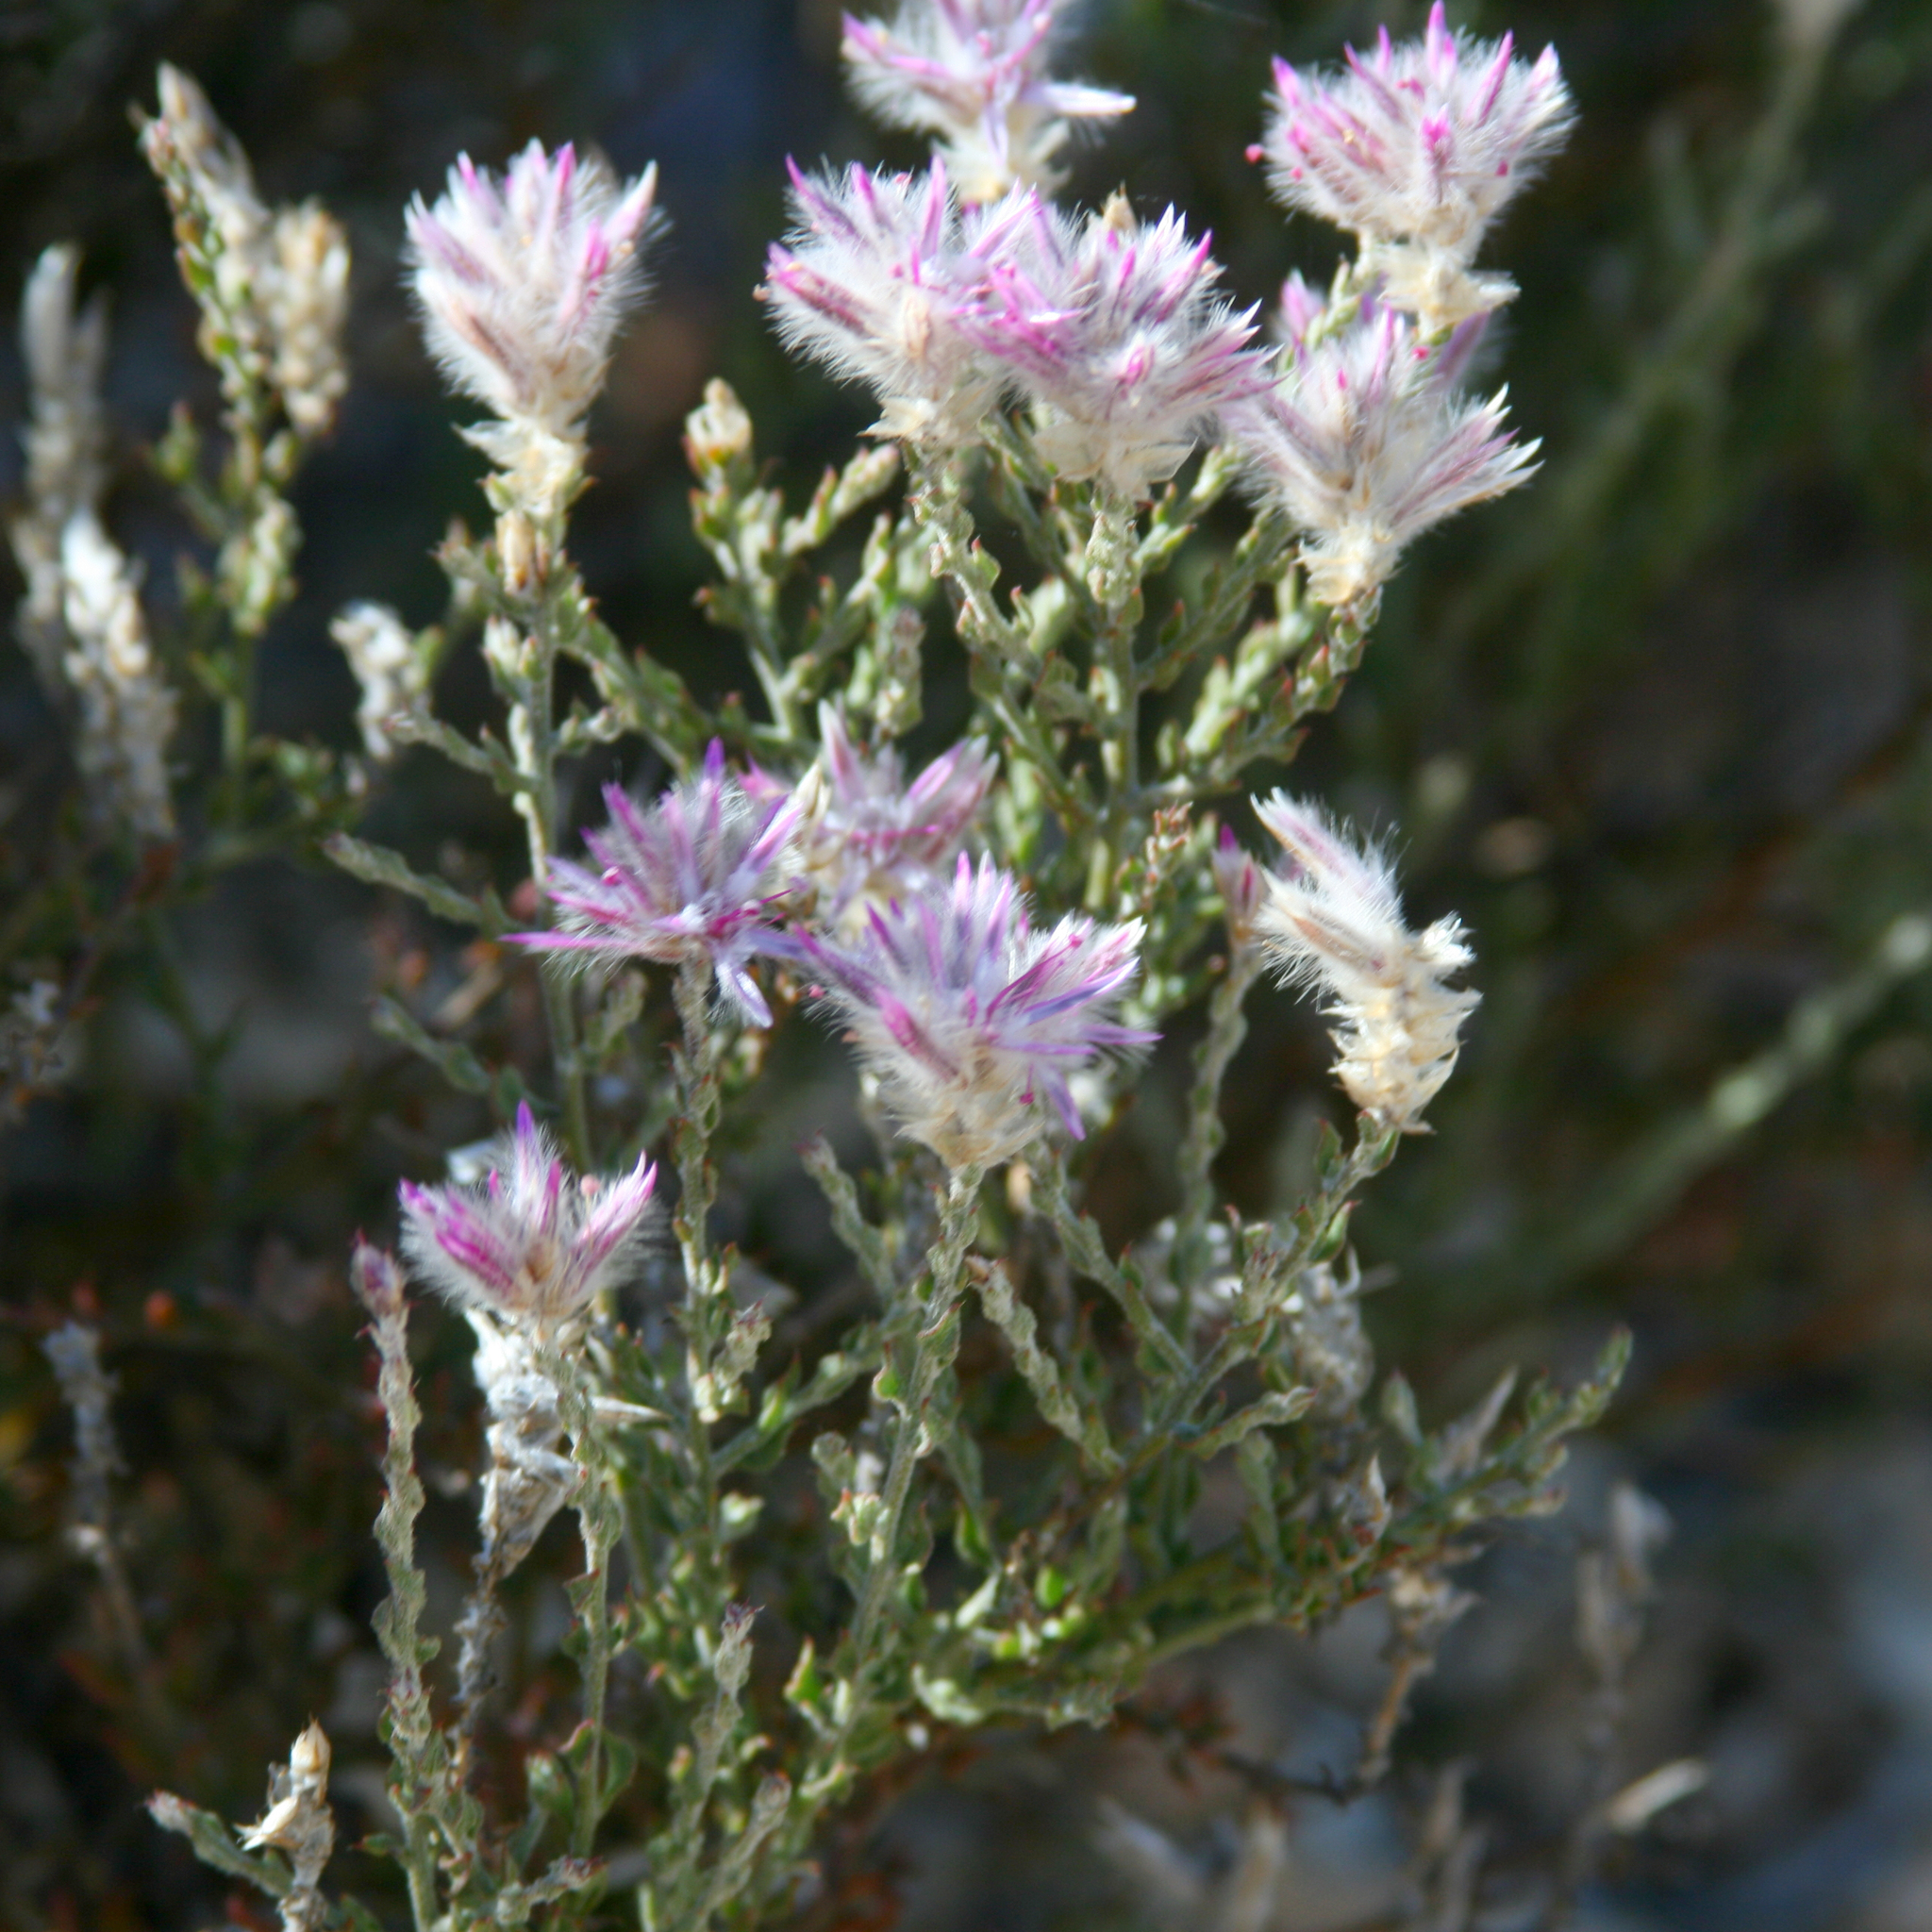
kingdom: Plantae
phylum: Tracheophyta
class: Magnoliopsida
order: Caryophyllales
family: Amaranthaceae
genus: Ptilotus
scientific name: Ptilotus remotiflorus
